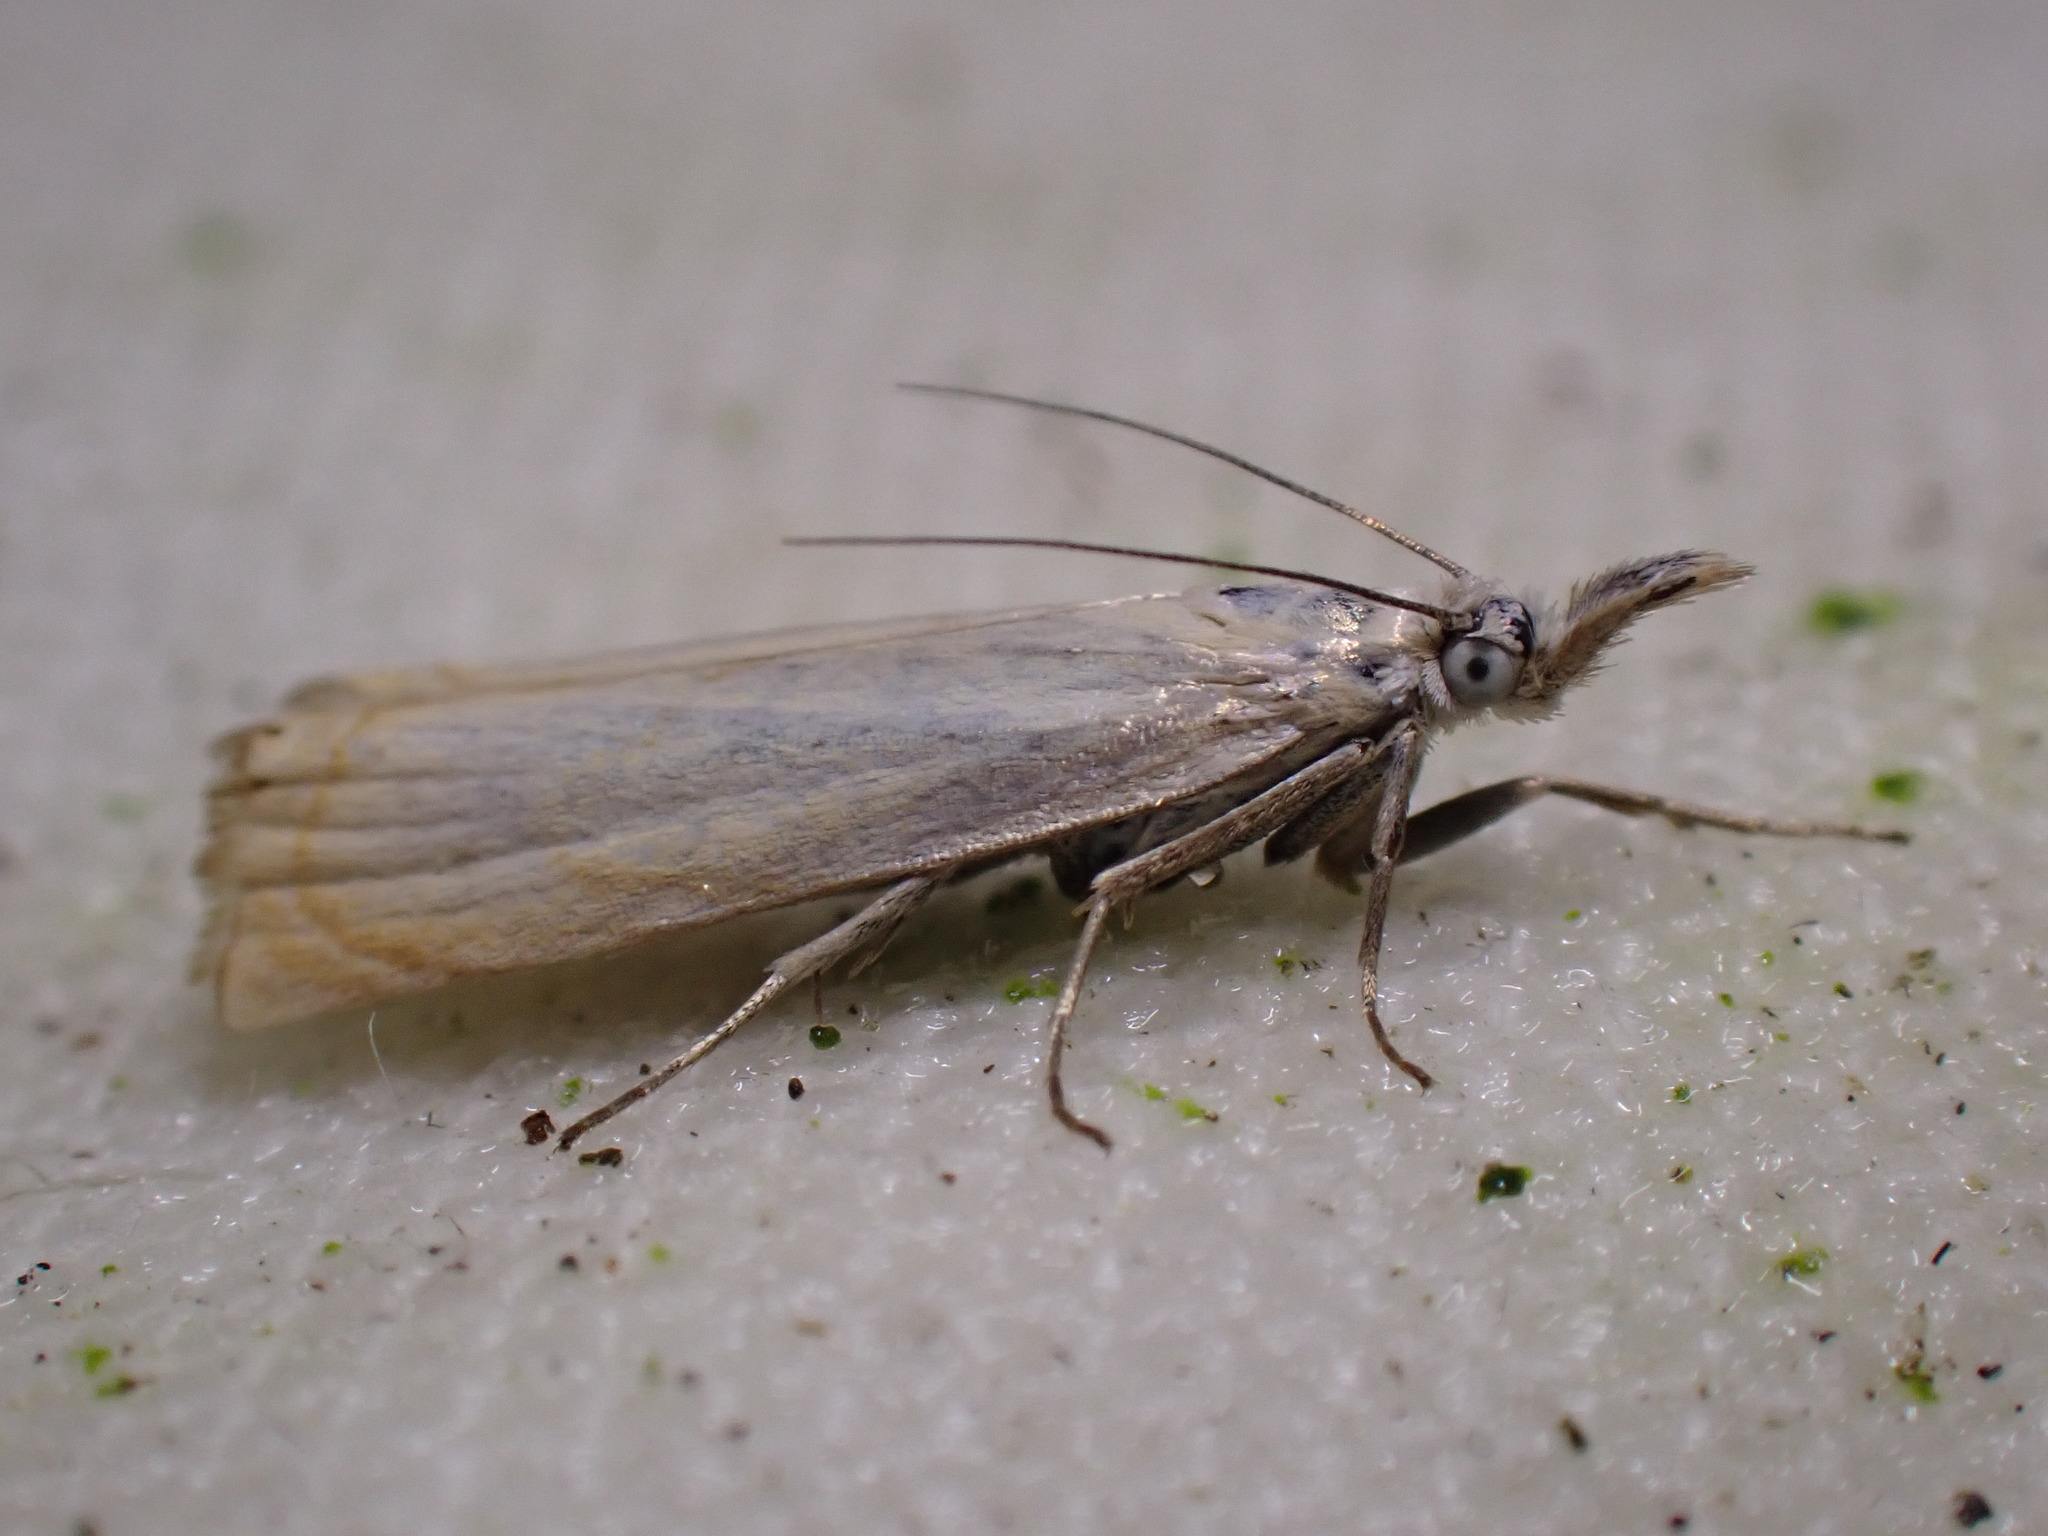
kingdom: Animalia
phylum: Arthropoda
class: Insecta
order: Lepidoptera
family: Crambidae
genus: Chrysoteuchia
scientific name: Chrysoteuchia culmella
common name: Garden grass-veneer
